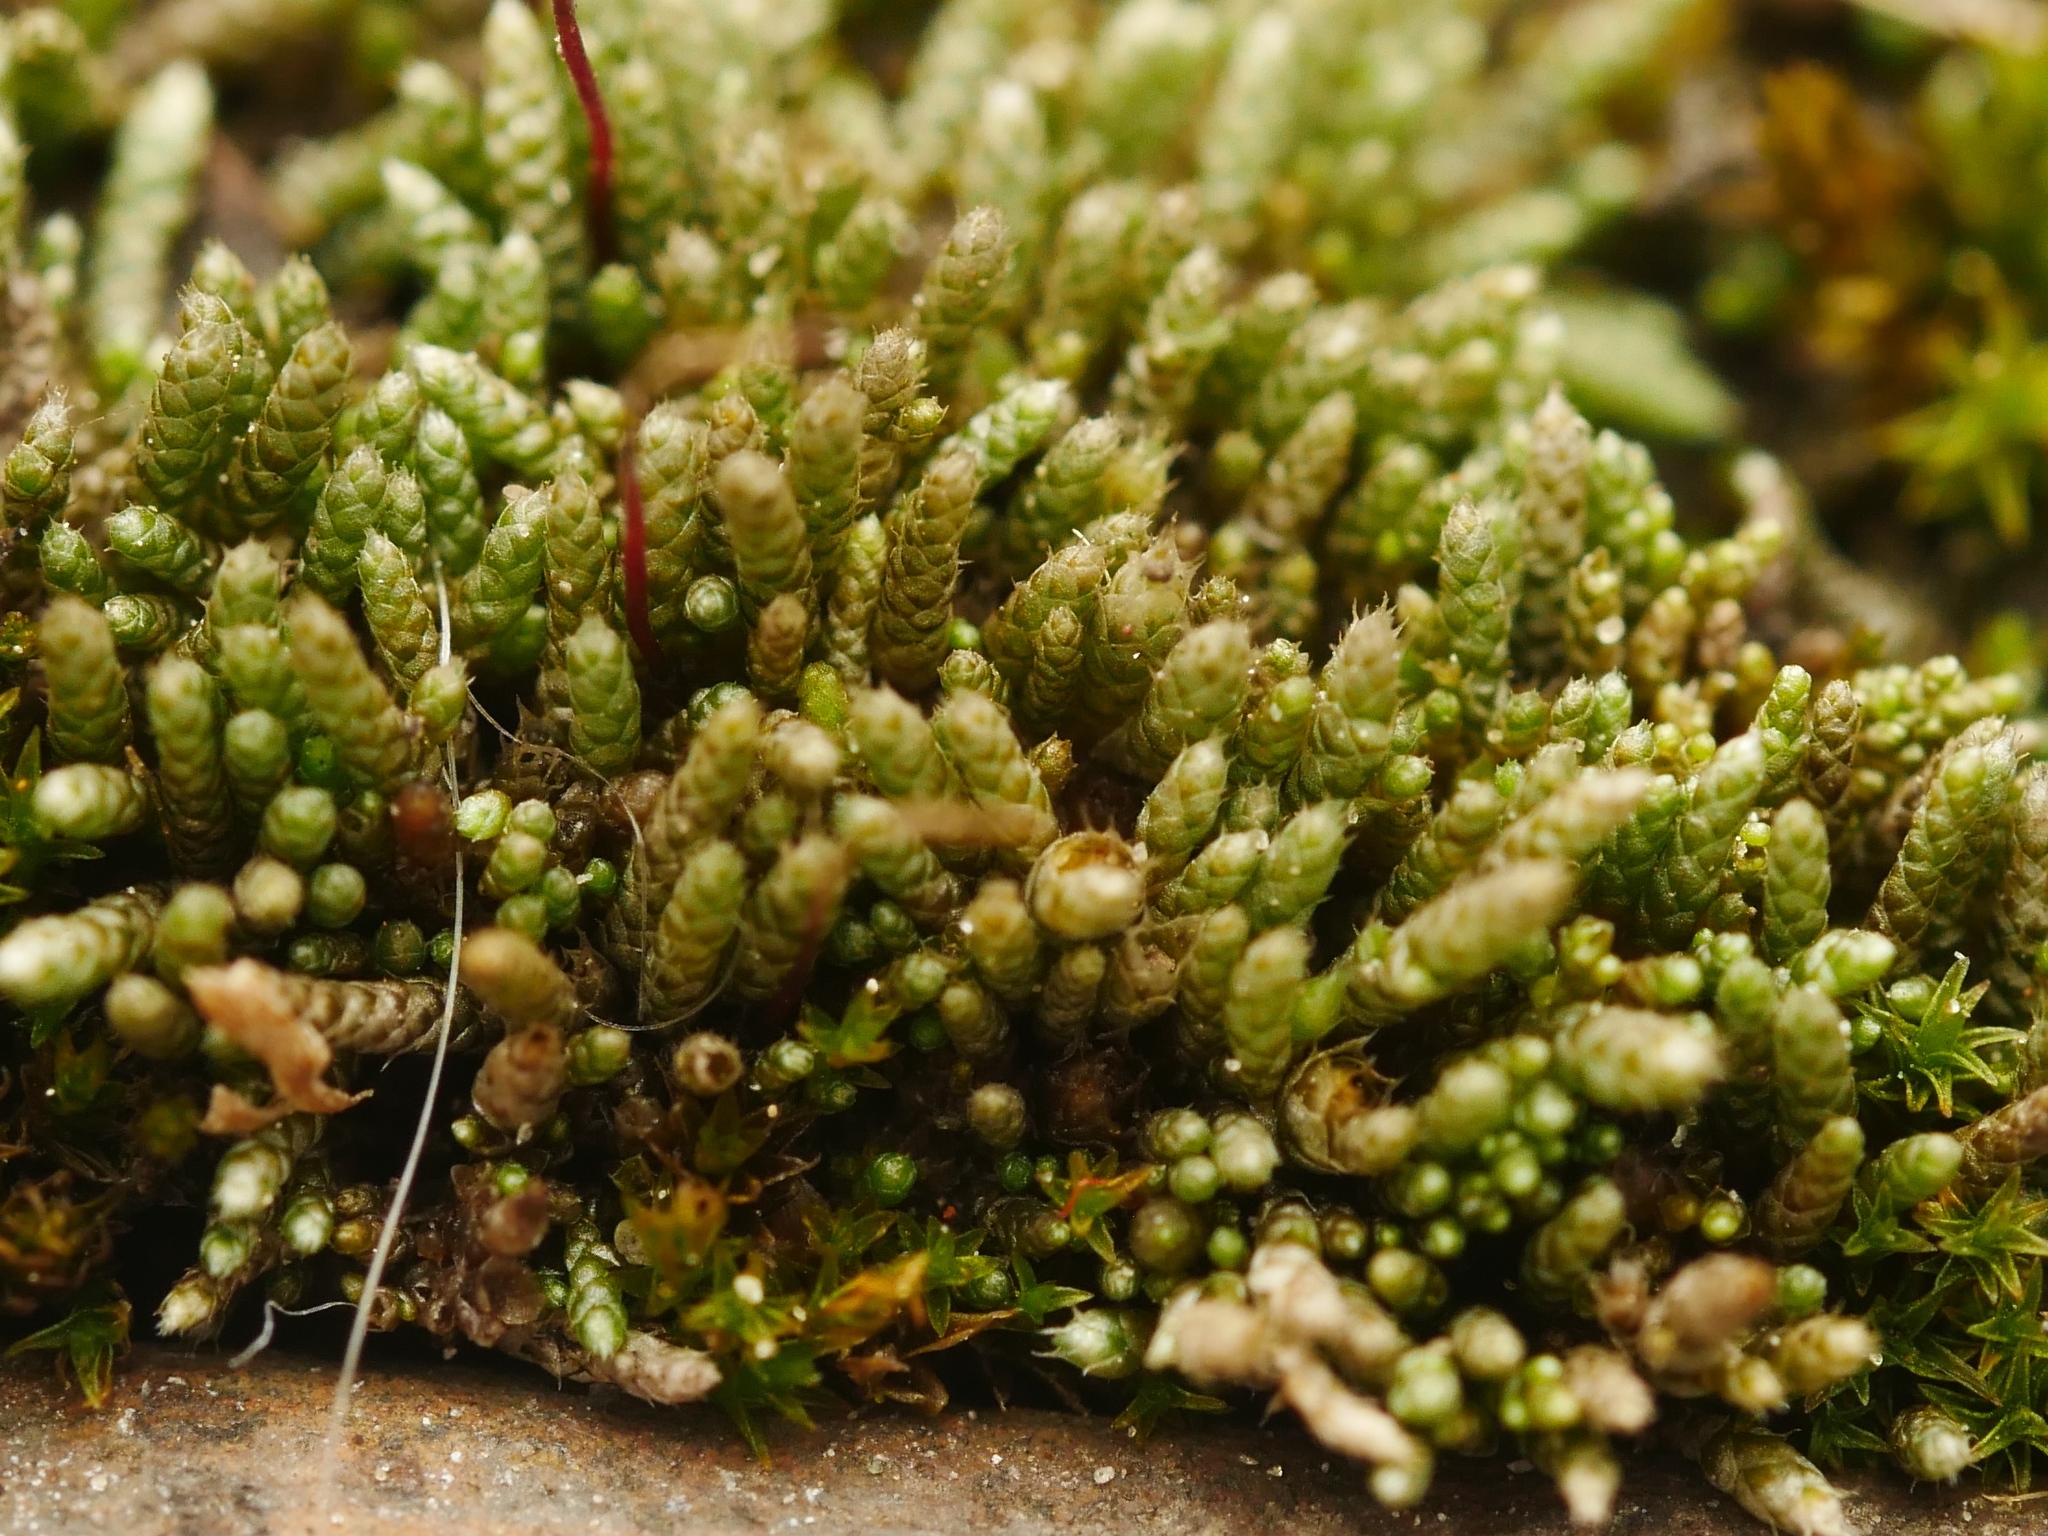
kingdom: Plantae
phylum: Bryophyta
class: Bryopsida
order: Bryales
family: Bryaceae
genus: Bryum
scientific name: Bryum argenteum
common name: Silver-moss
